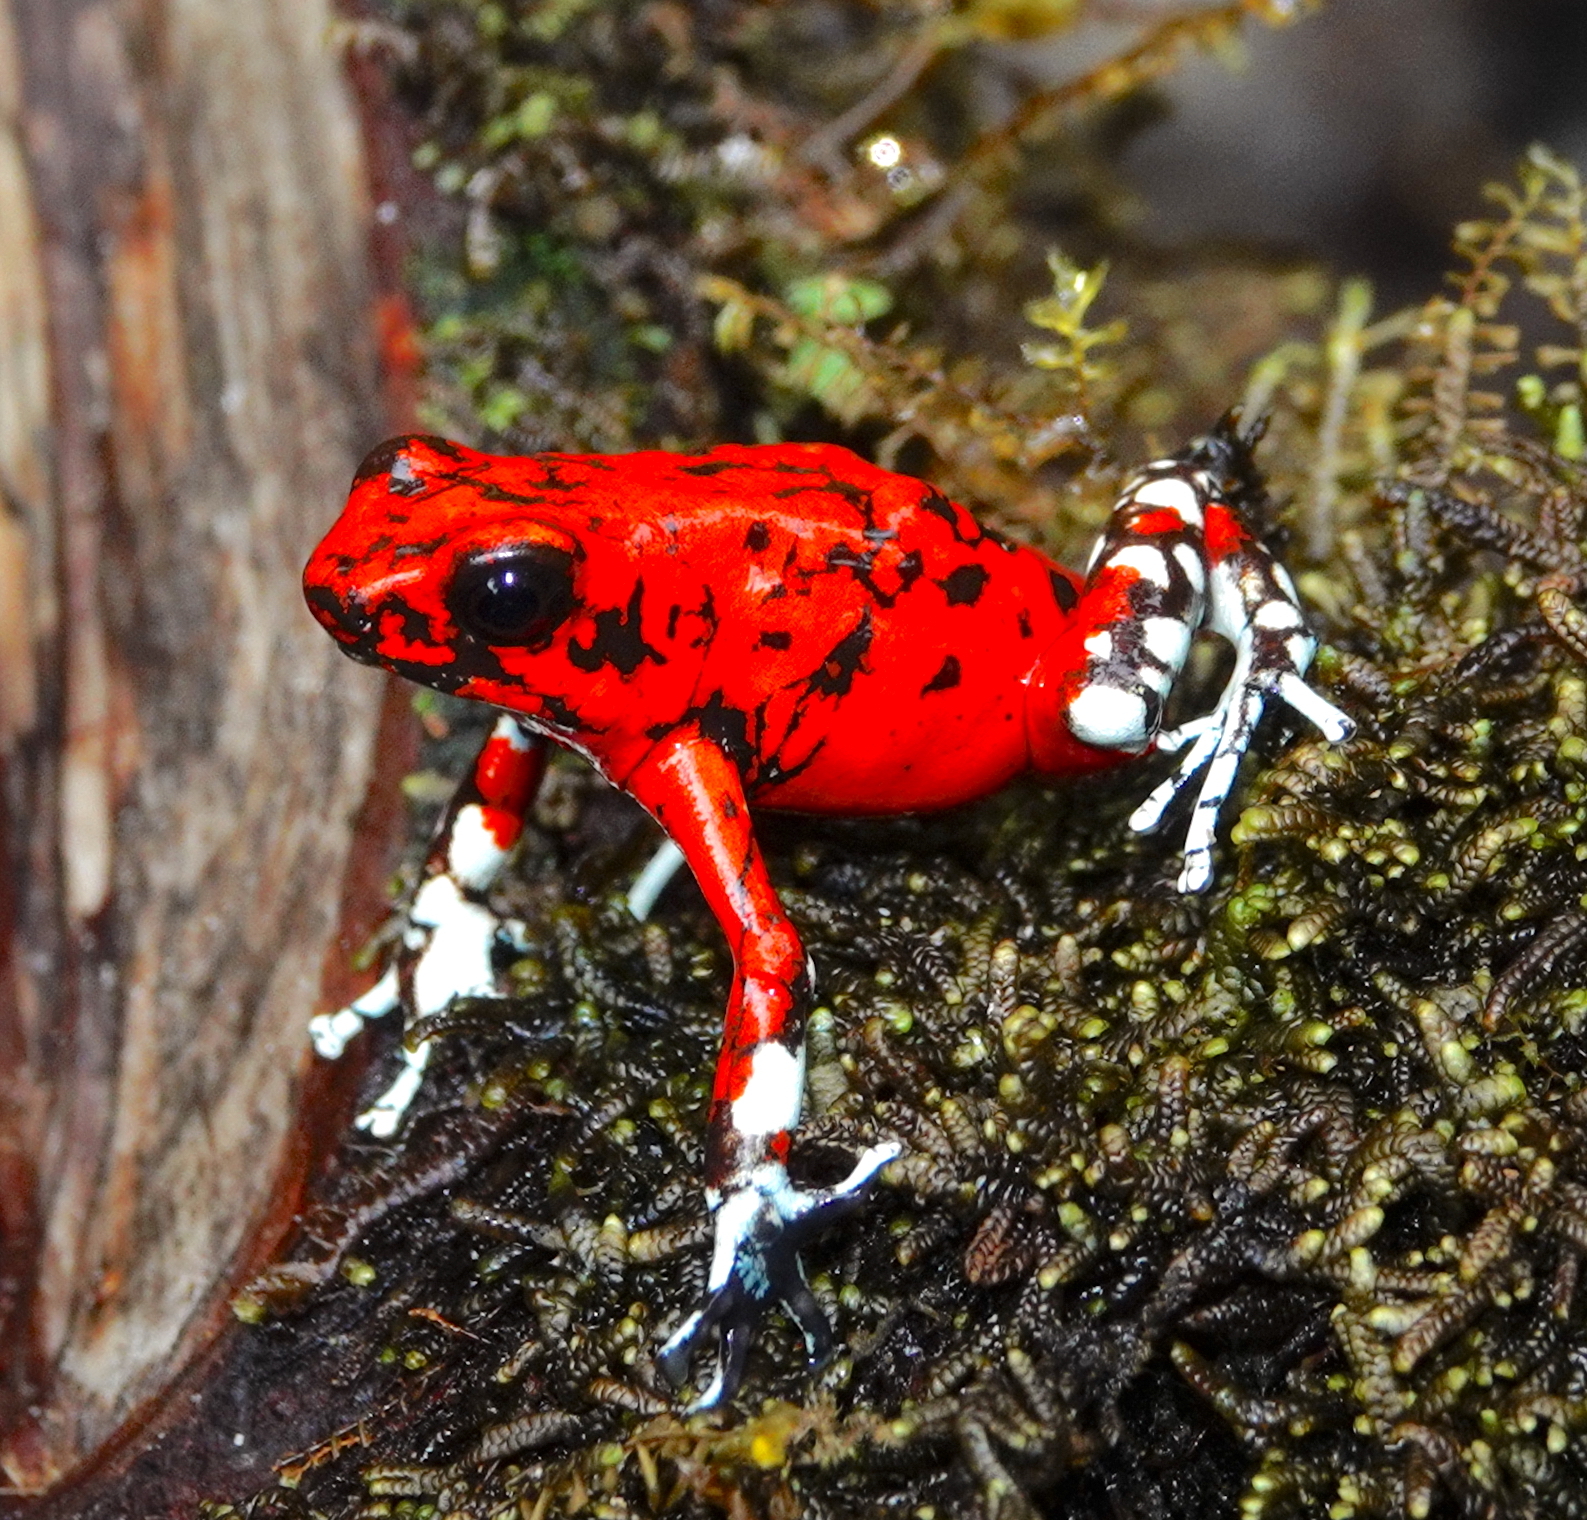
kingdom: Animalia
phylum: Chordata
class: Amphibia
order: Anura
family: Dendrobatidae
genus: Oophaga
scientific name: Oophaga sylvatica
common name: Little-devil poison frog
